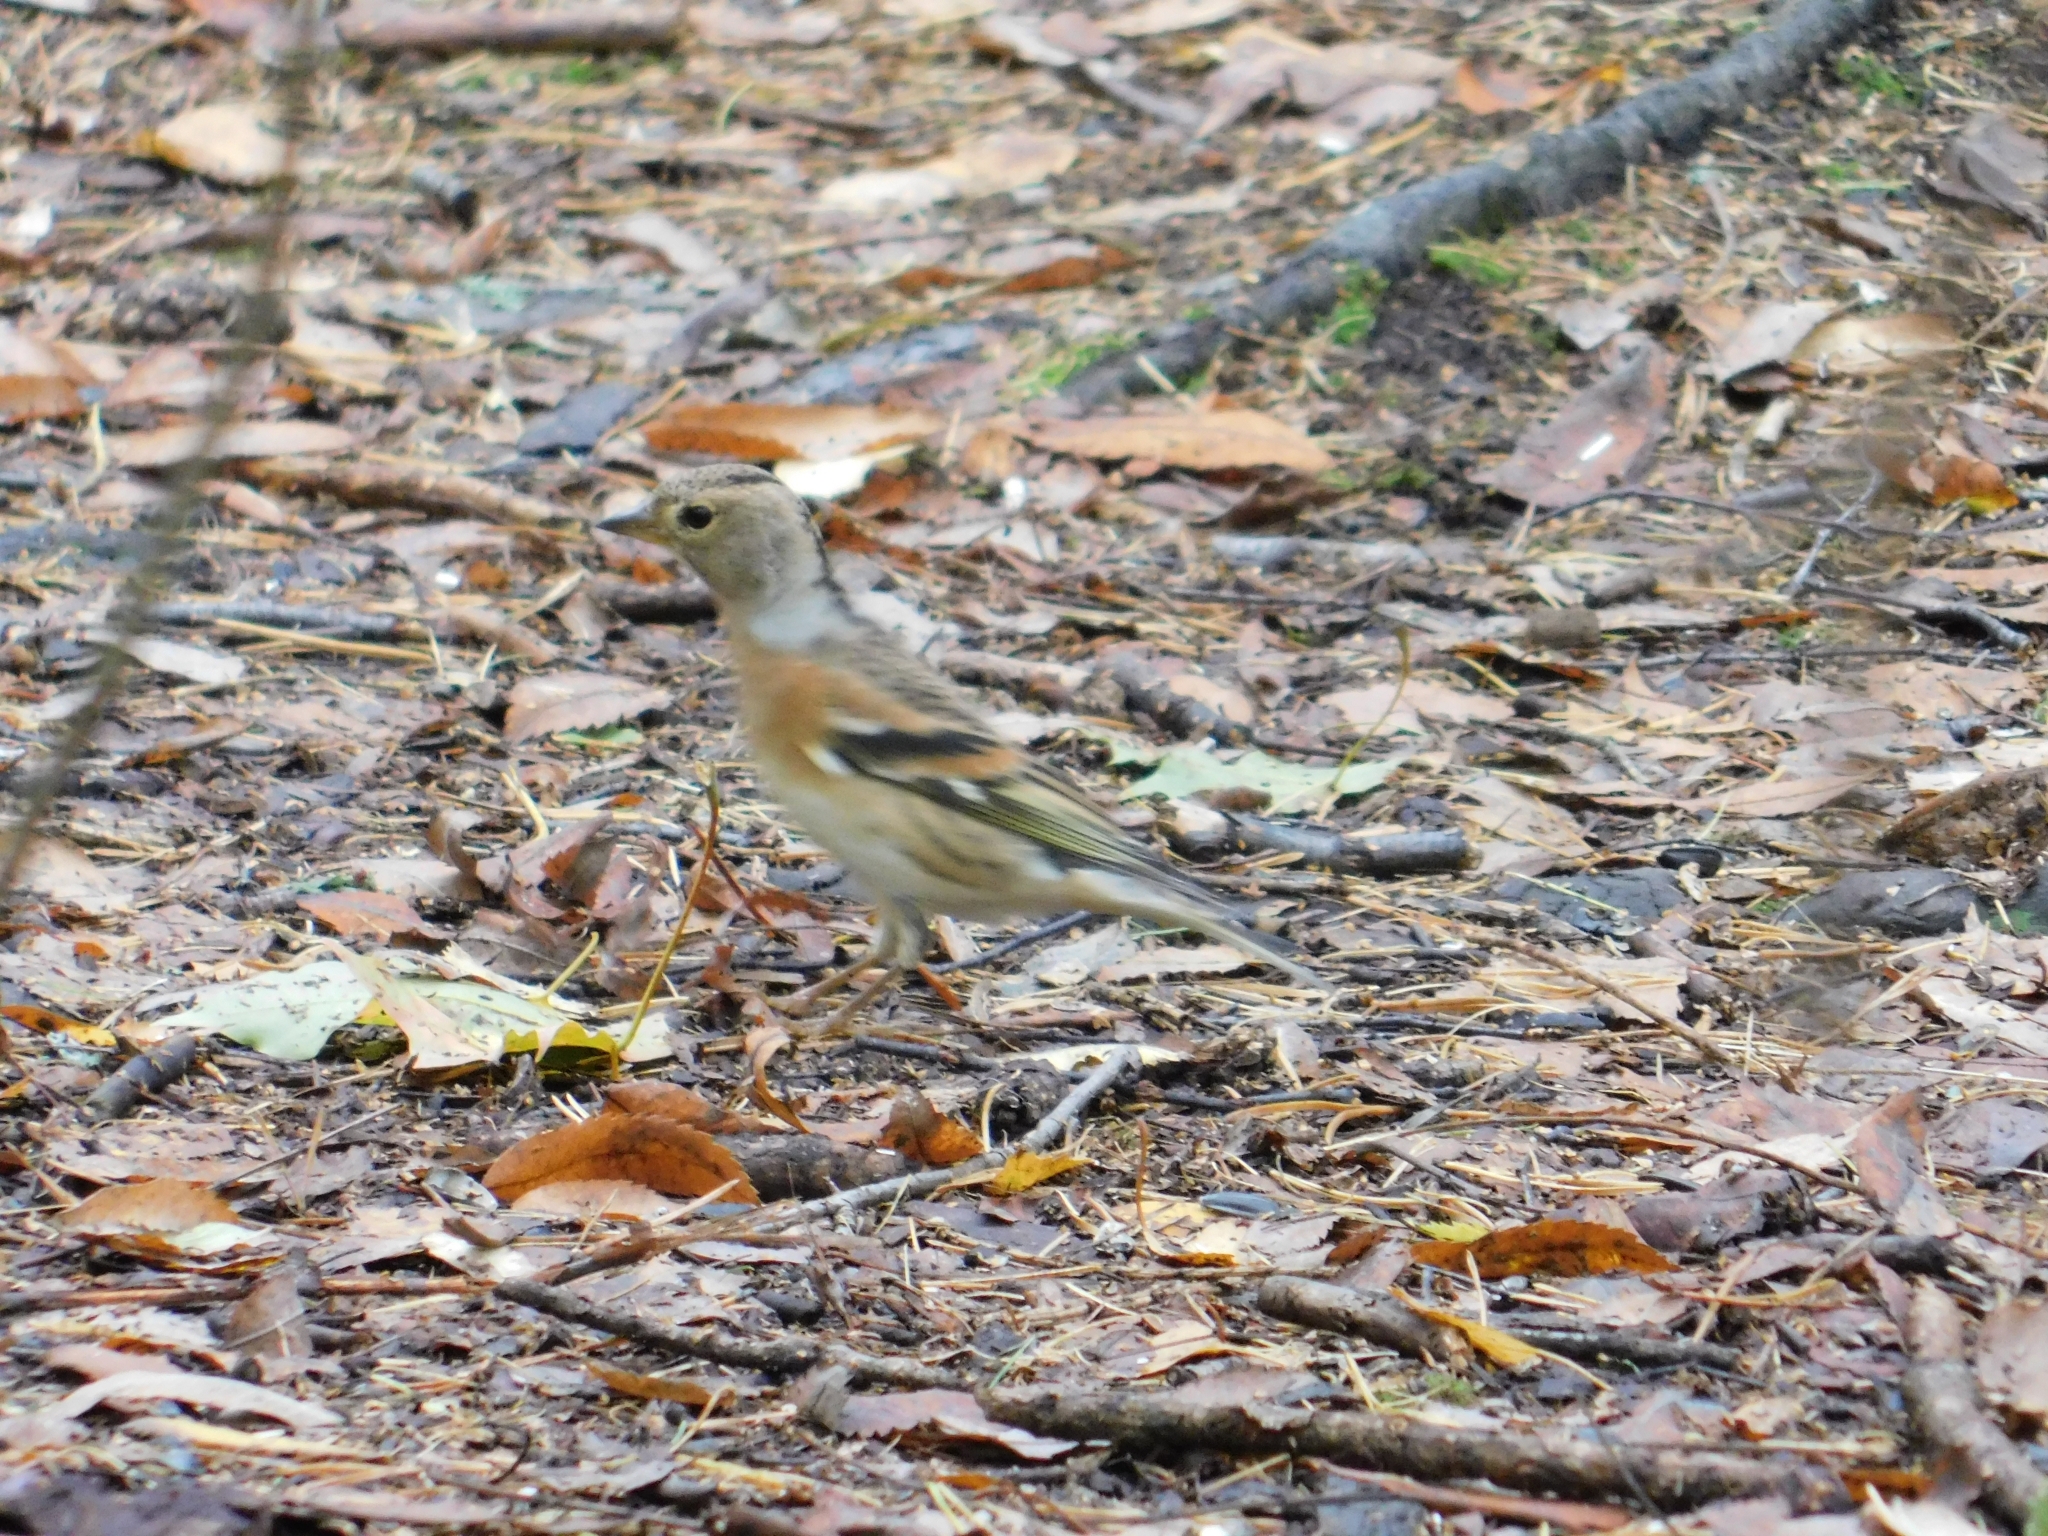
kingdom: Animalia
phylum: Chordata
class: Aves
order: Passeriformes
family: Fringillidae
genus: Fringilla
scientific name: Fringilla montifringilla
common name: Brambling
